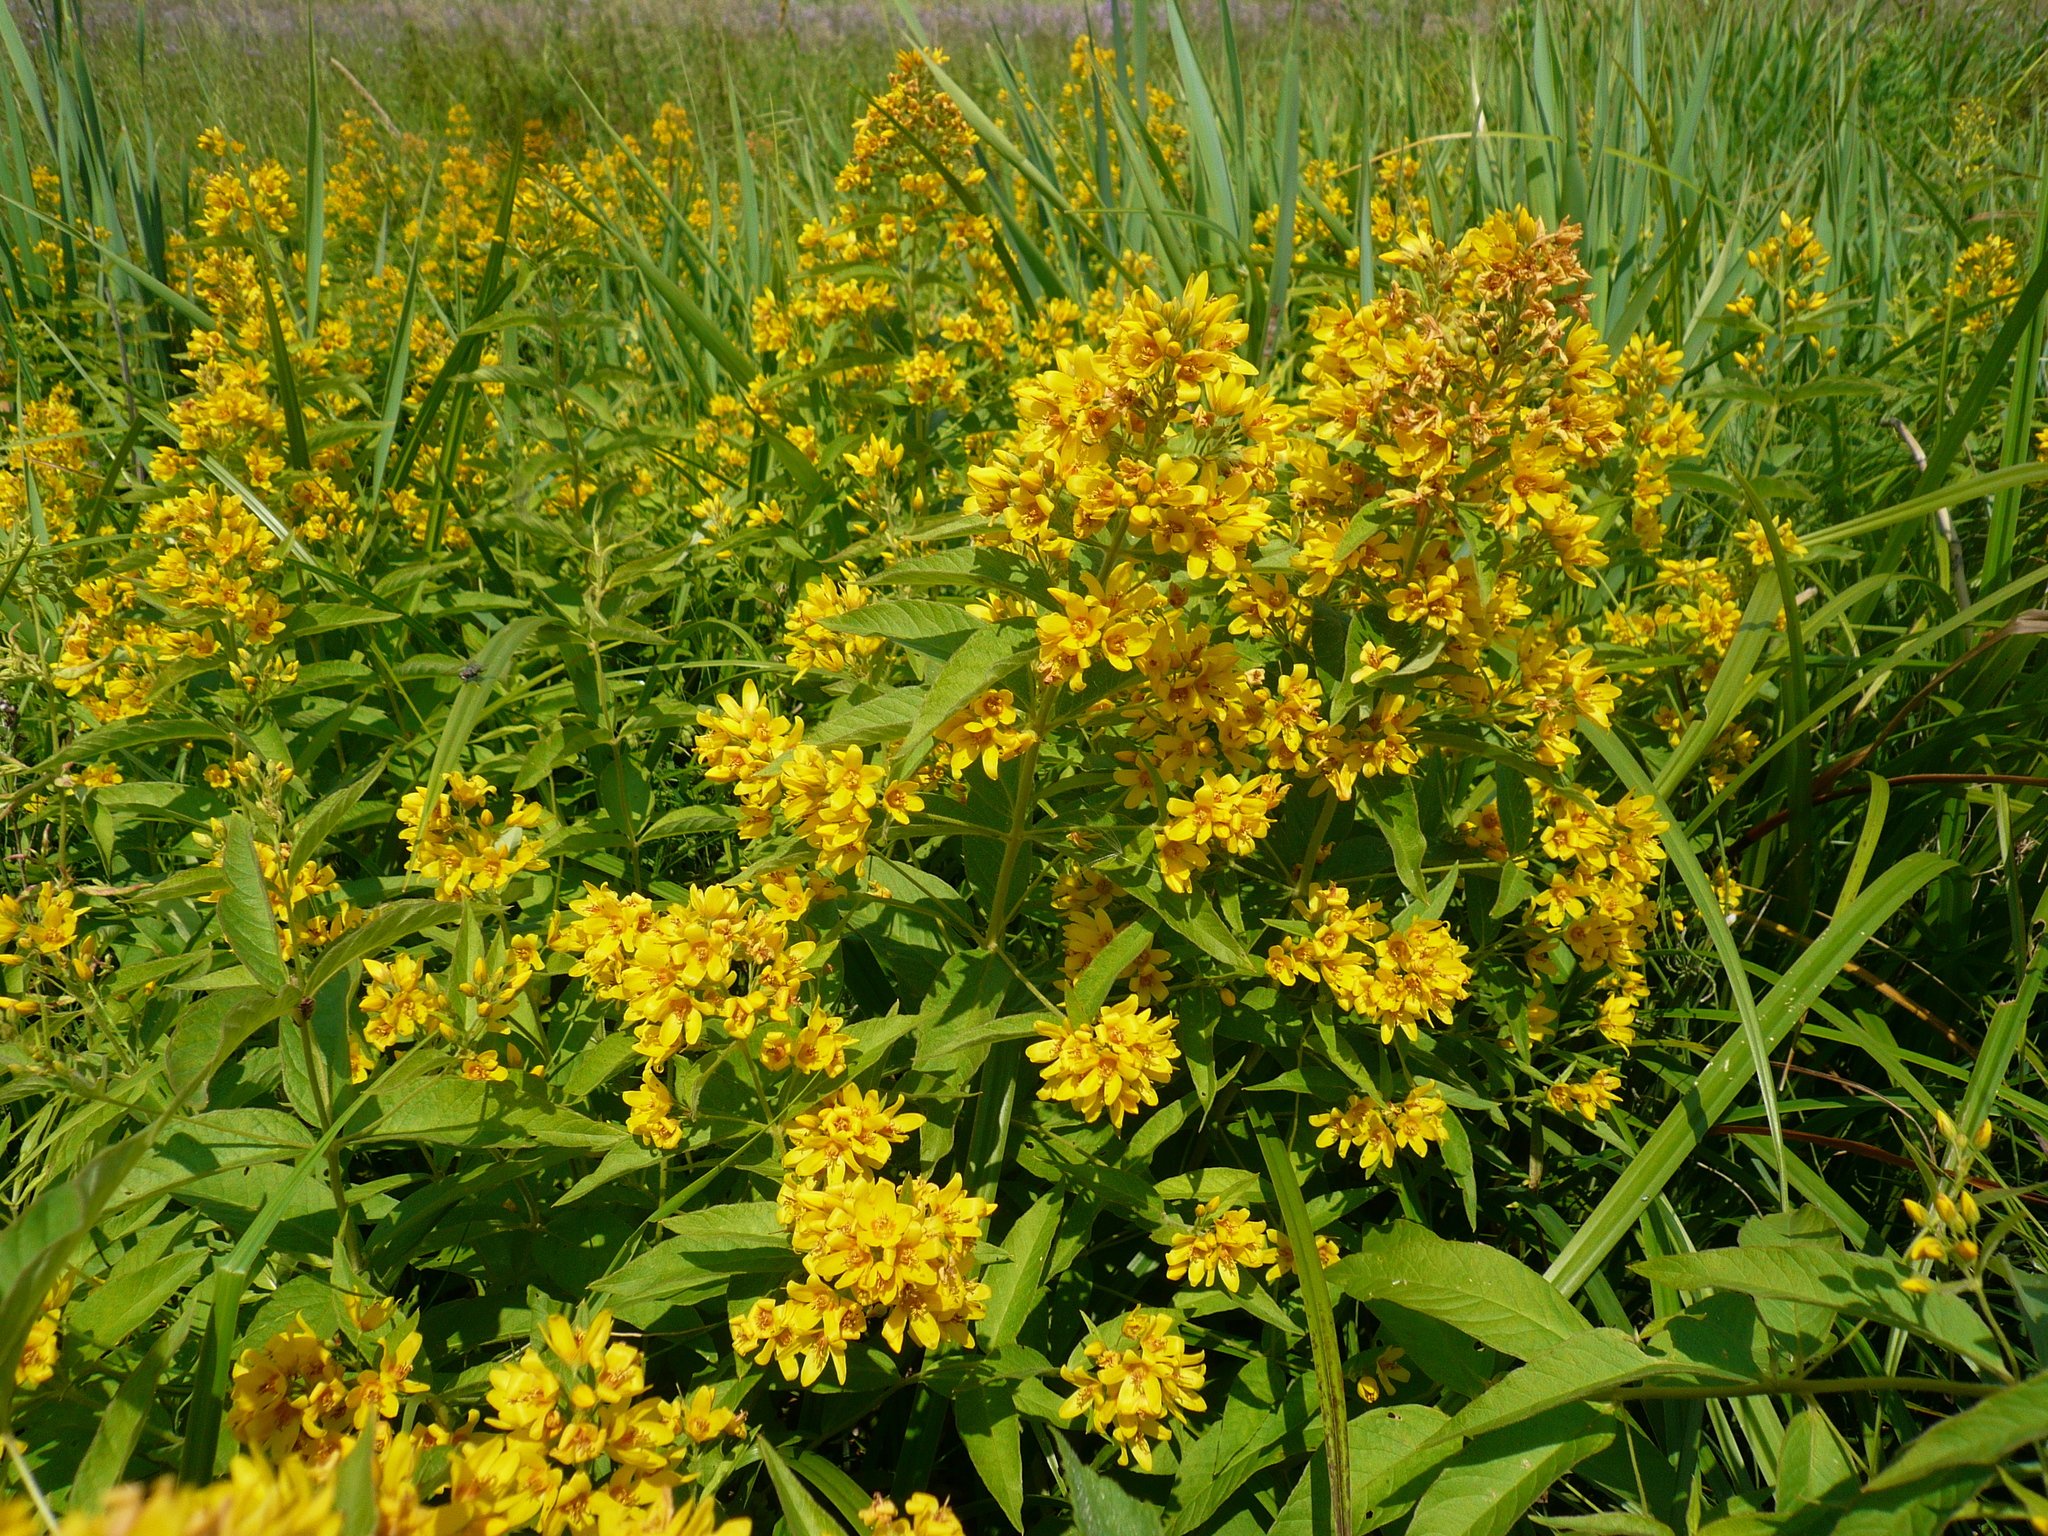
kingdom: Plantae
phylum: Tracheophyta
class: Magnoliopsida
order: Ericales
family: Primulaceae
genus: Lysimachia
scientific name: Lysimachia vulgaris
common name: Yellow loosestrife
